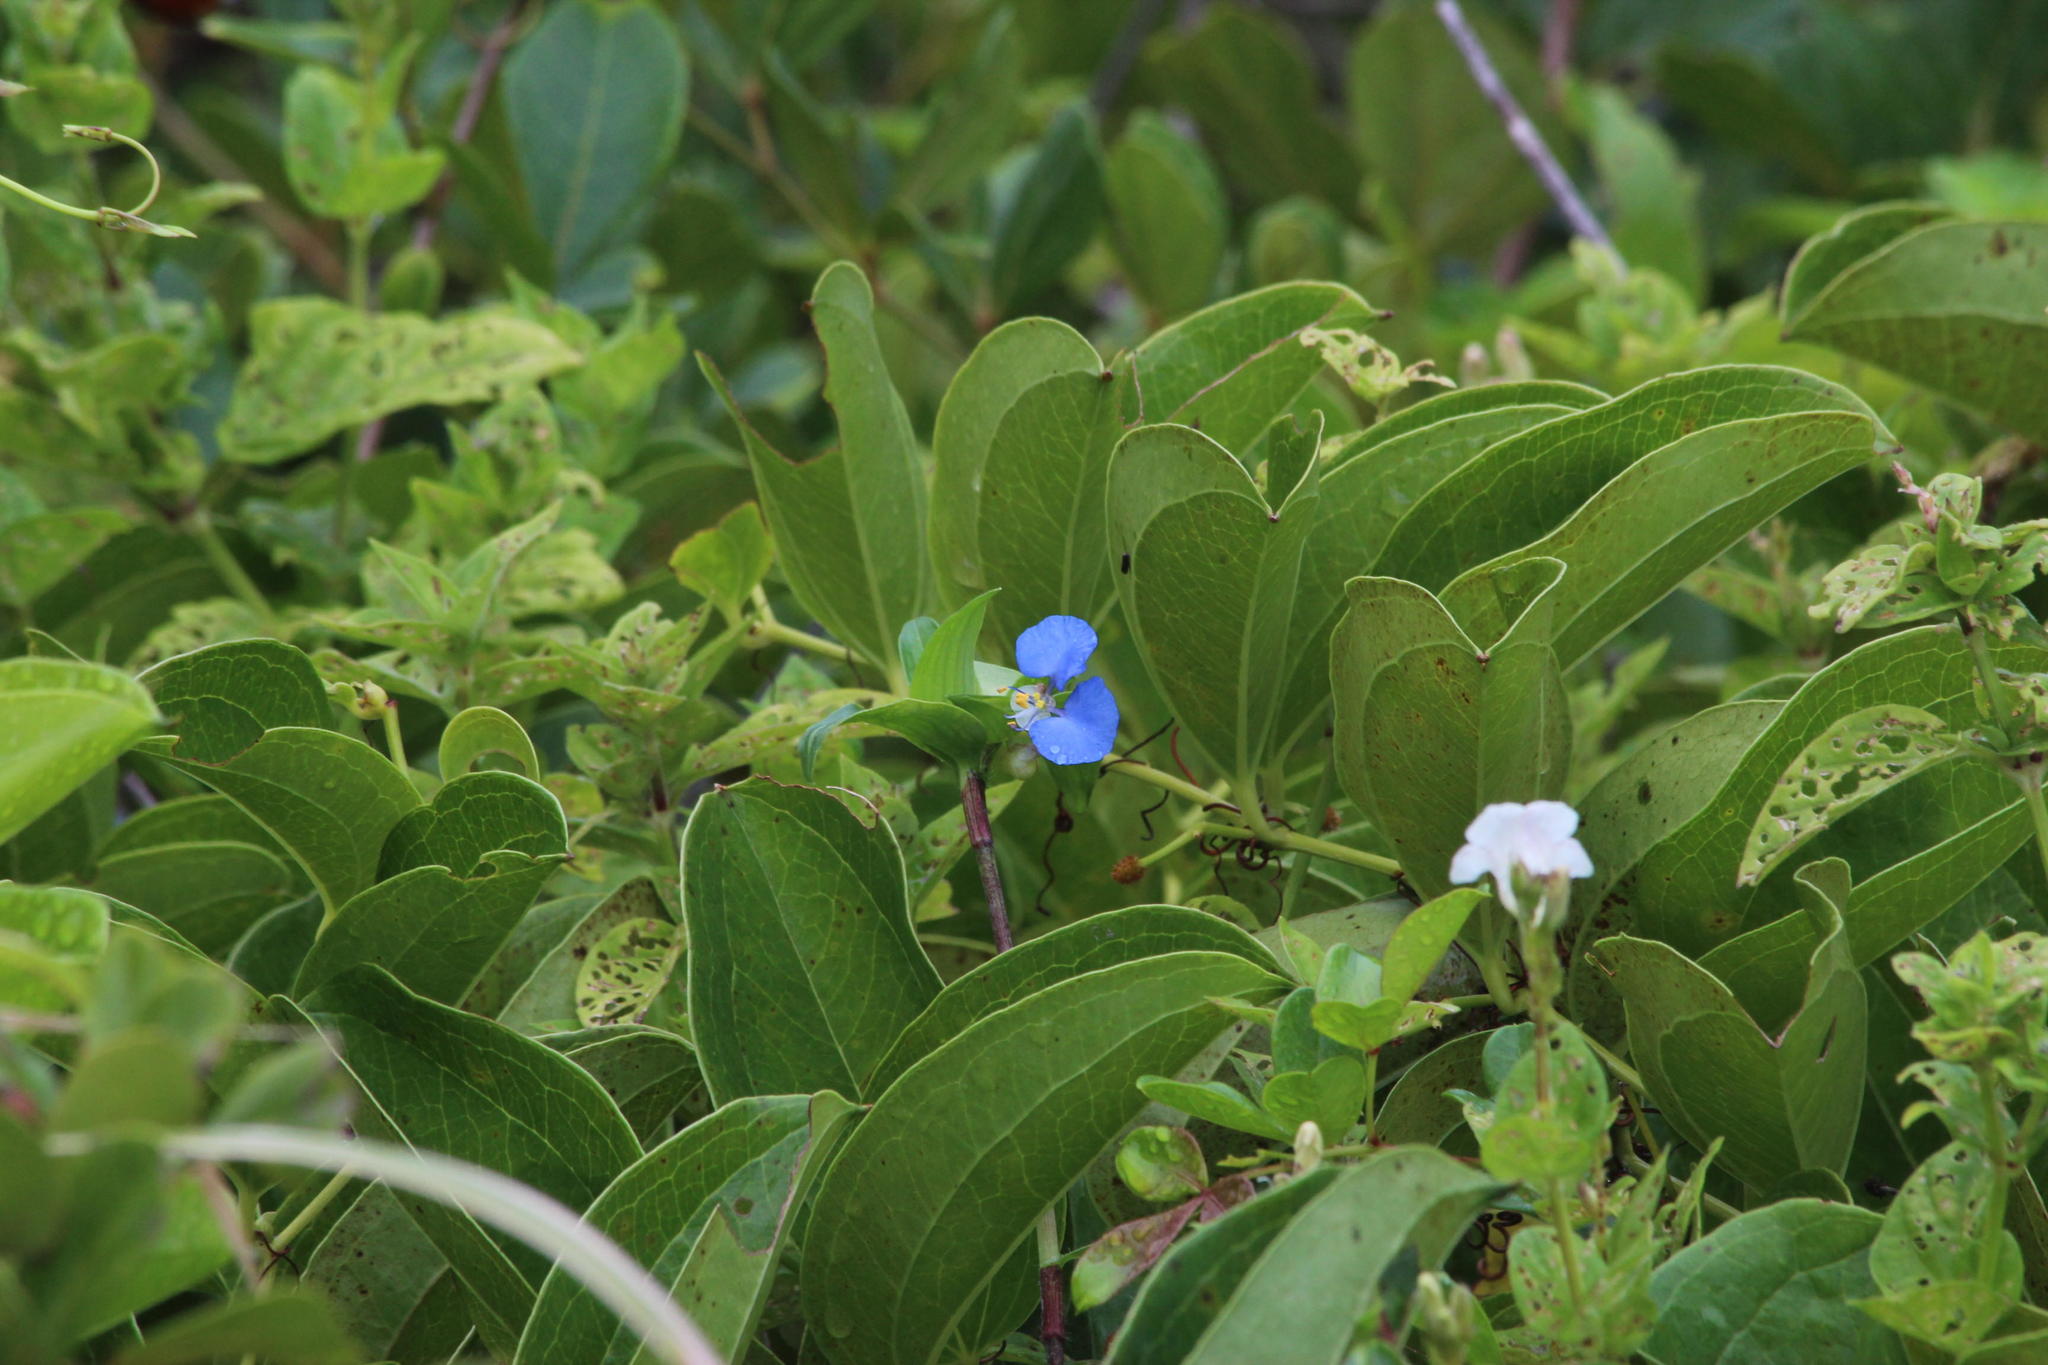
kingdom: Plantae
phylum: Tracheophyta
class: Liliopsida
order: Commelinales
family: Commelinaceae
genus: Commelina
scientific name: Commelina benghalensis
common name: Jio
